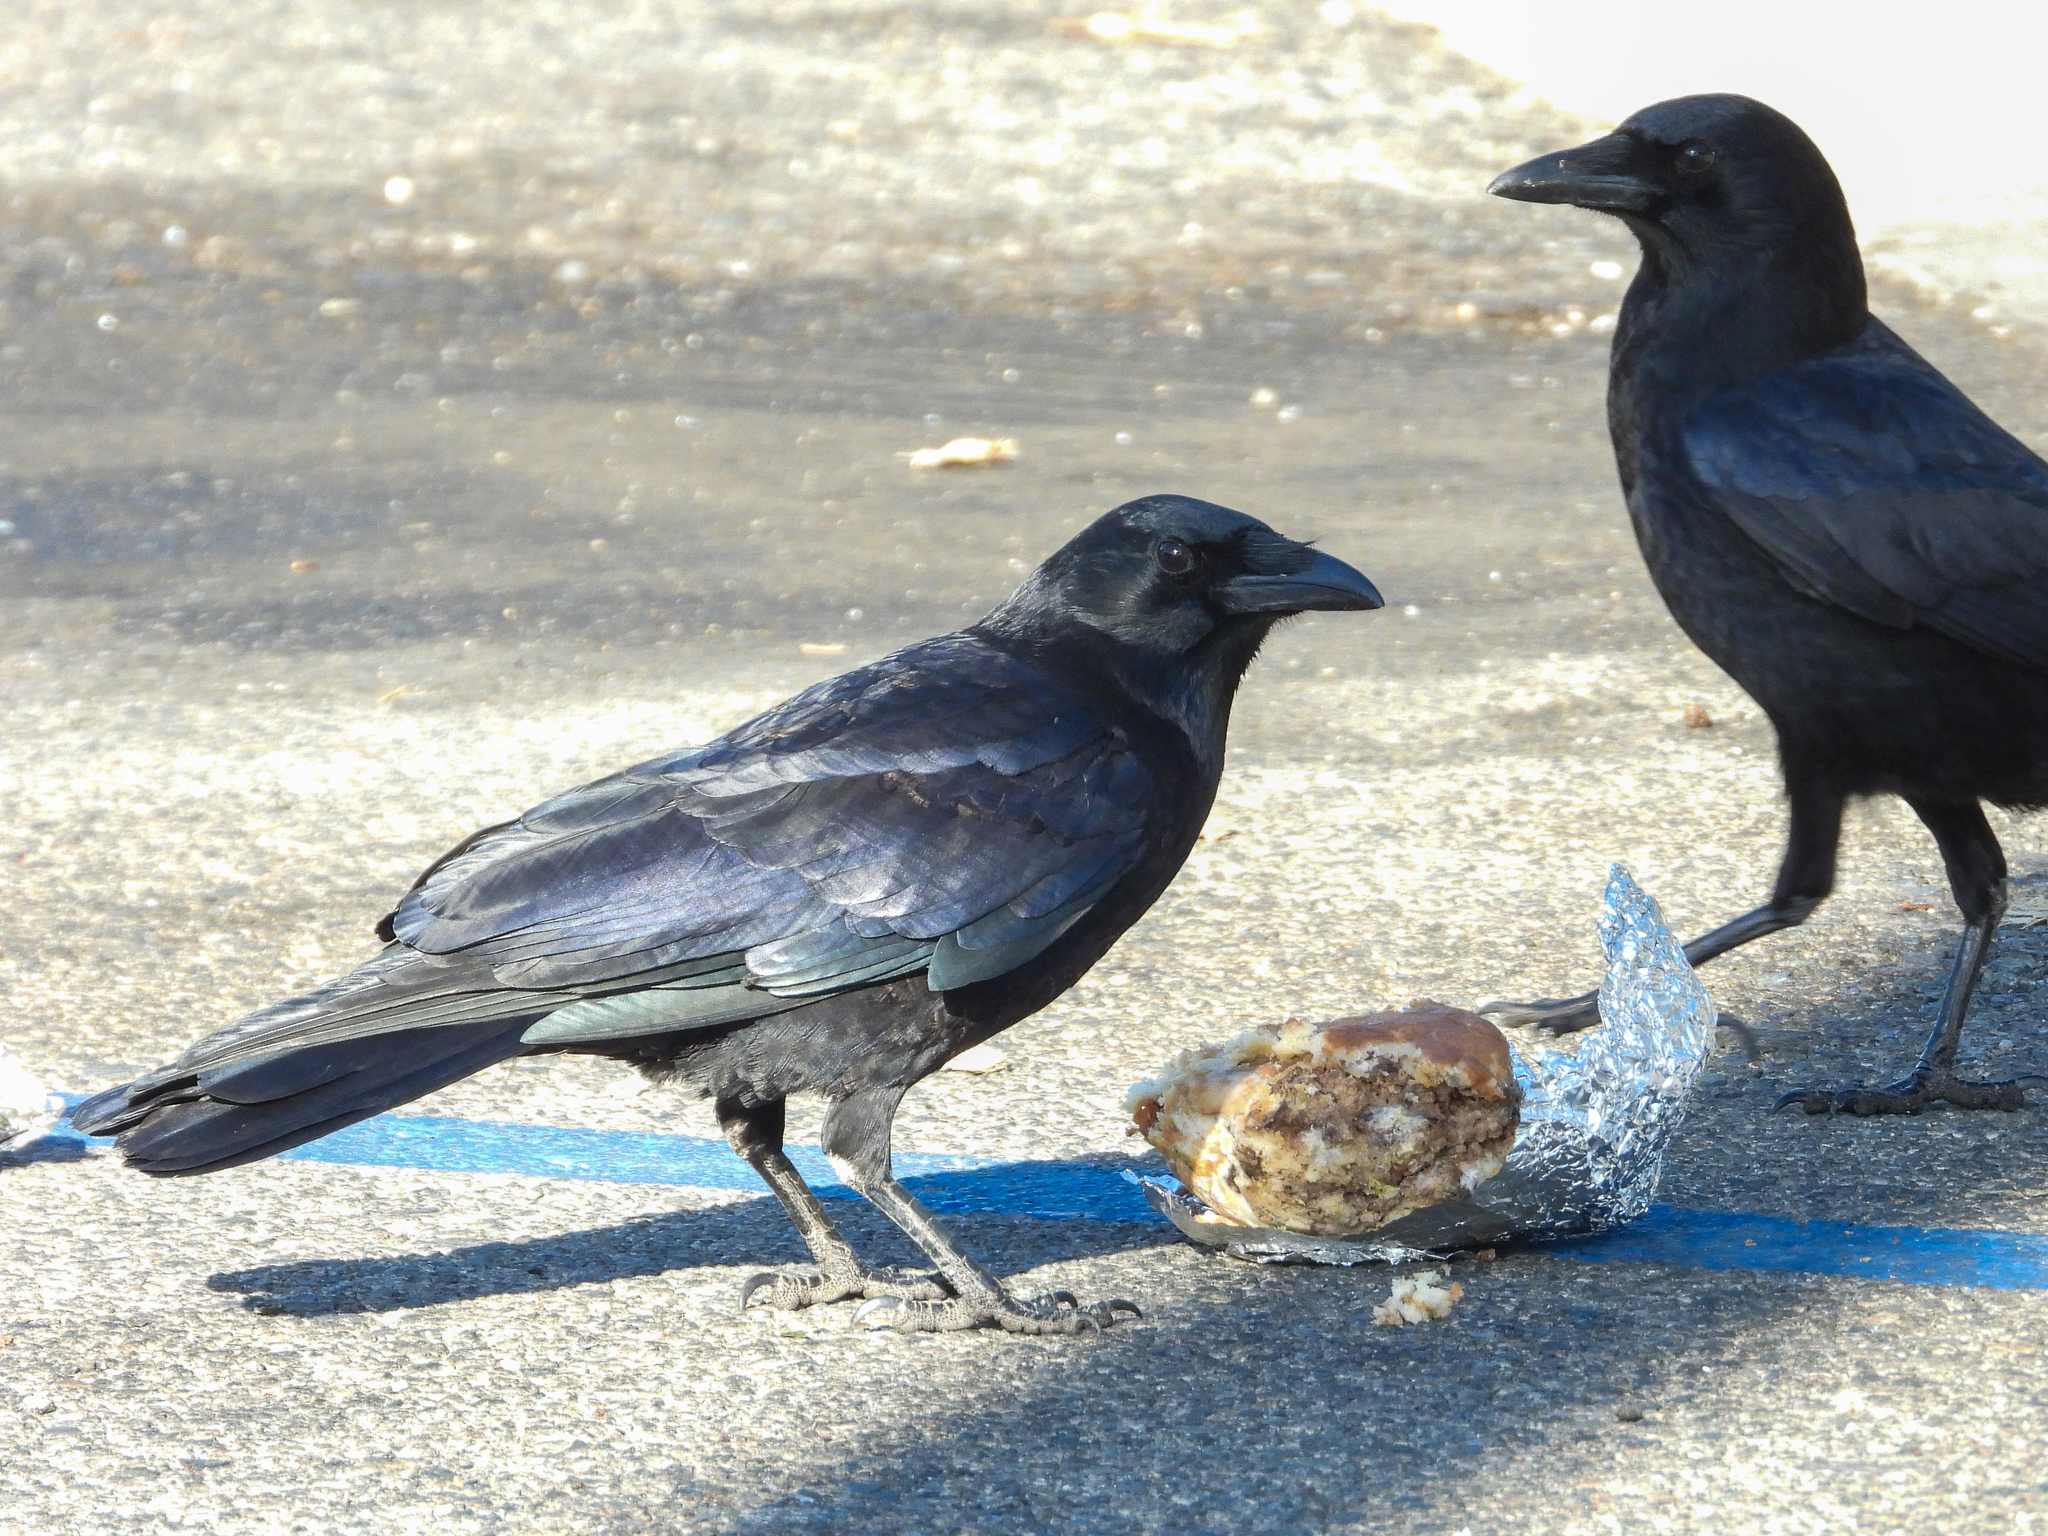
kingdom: Animalia
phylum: Chordata
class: Aves
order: Passeriformes
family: Corvidae
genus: Corvus
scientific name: Corvus brachyrhynchos
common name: American crow
